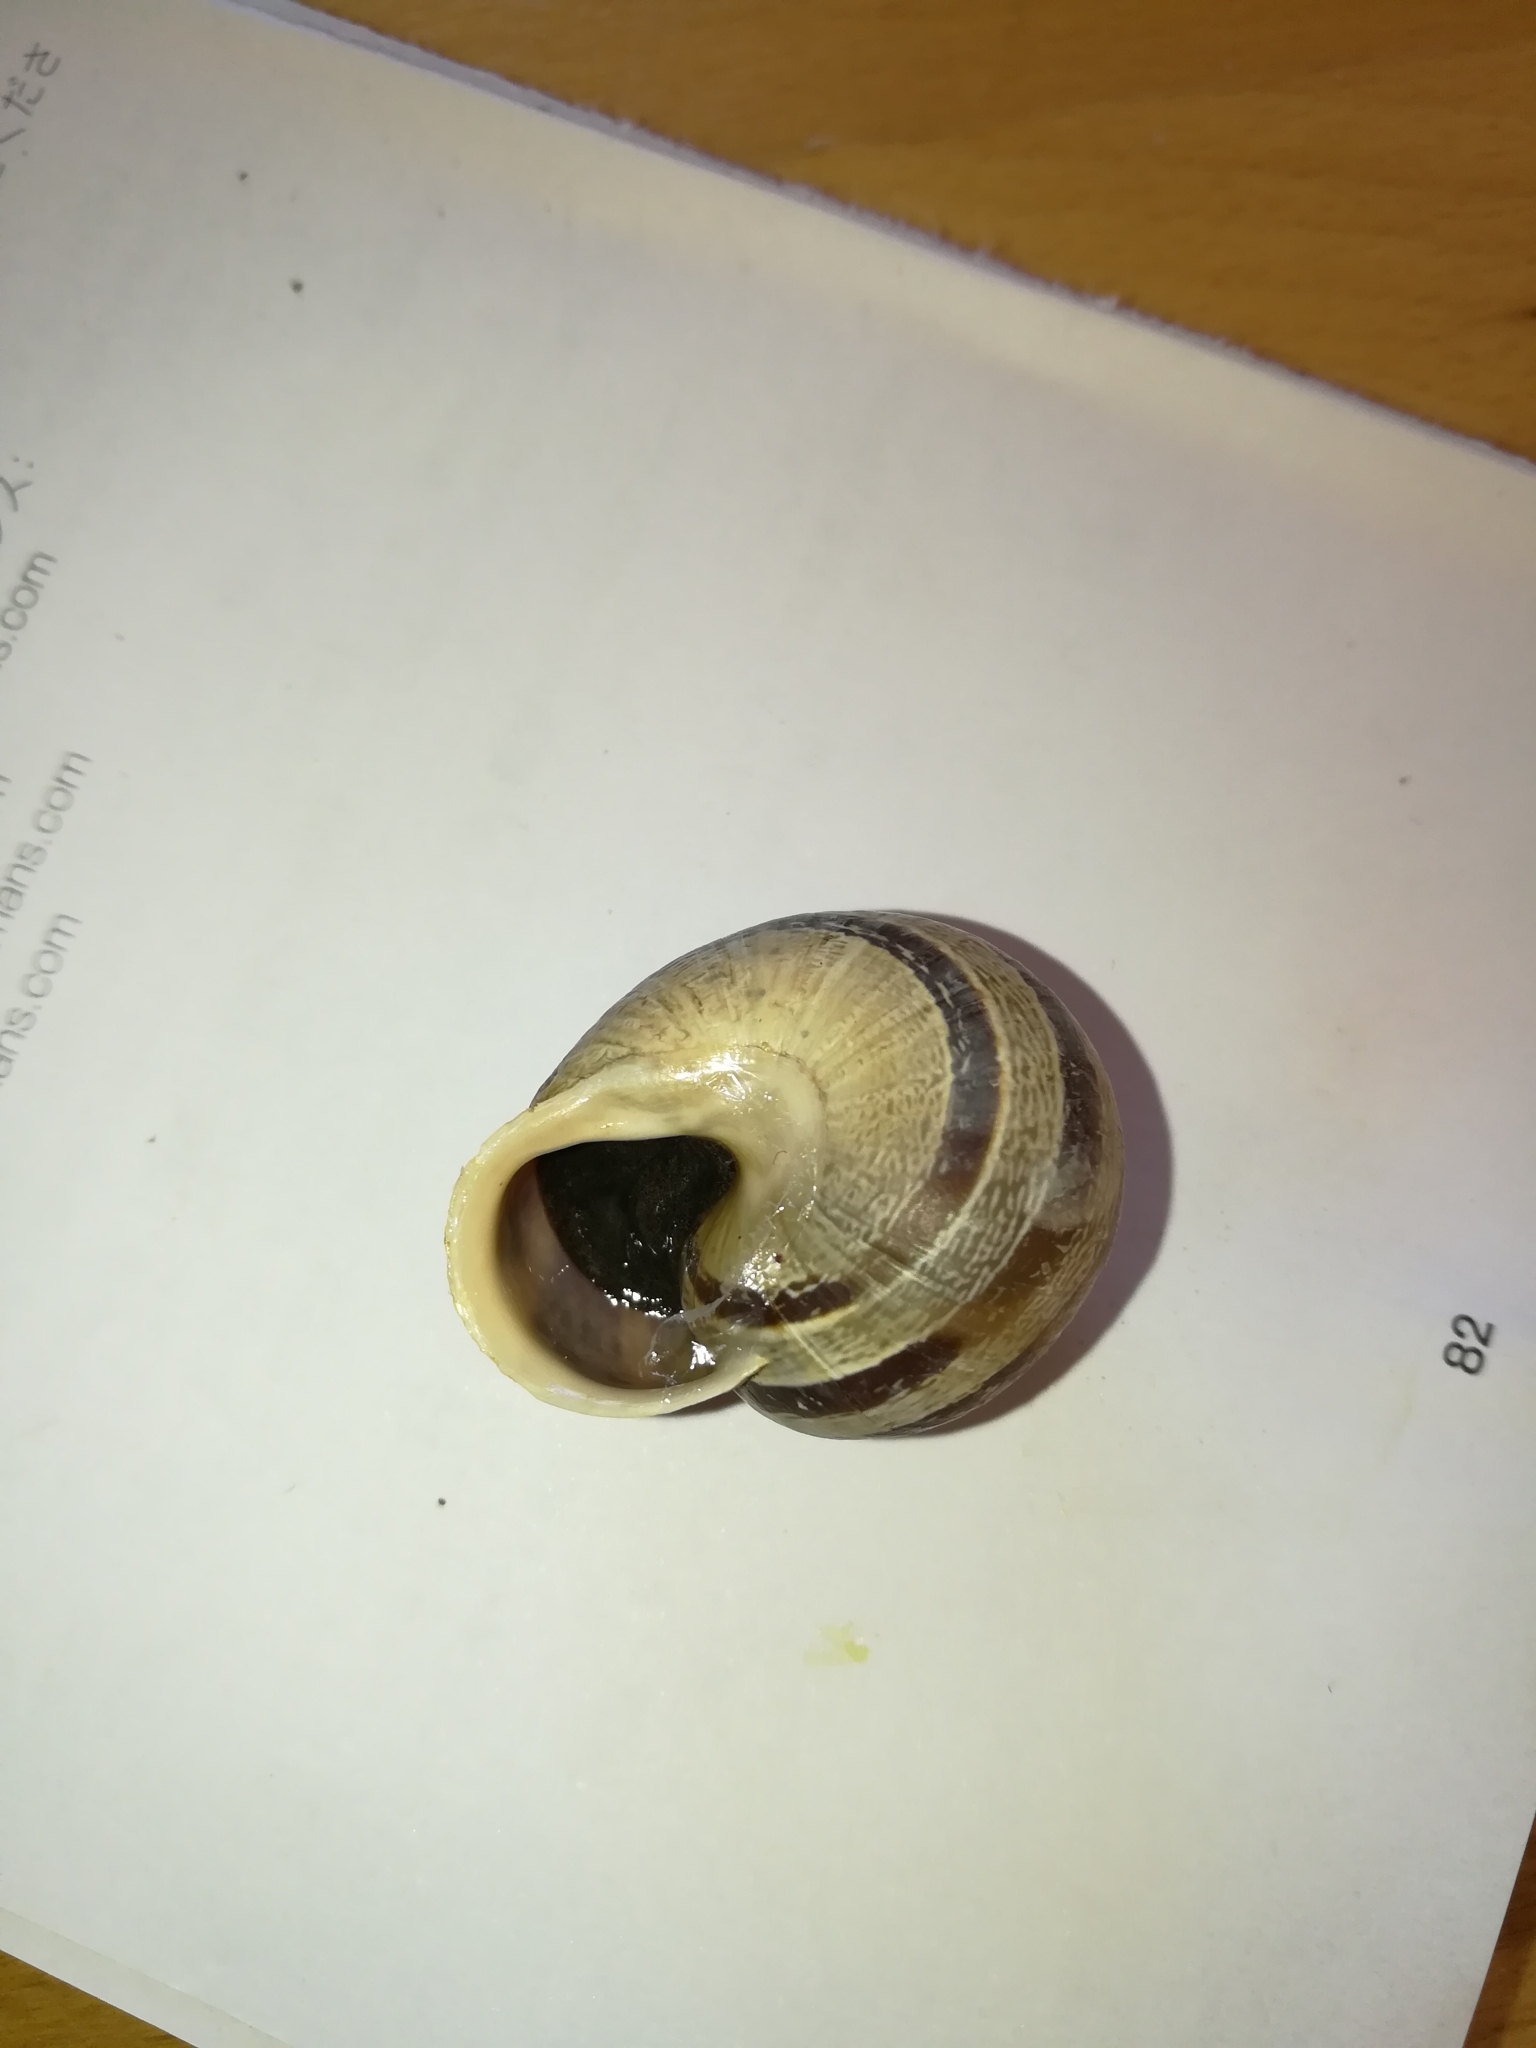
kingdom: Animalia
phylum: Mollusca
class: Gastropoda
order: Stylommatophora
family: Helicidae
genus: Eobania
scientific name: Eobania vermiculata
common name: Chocolateband snail
